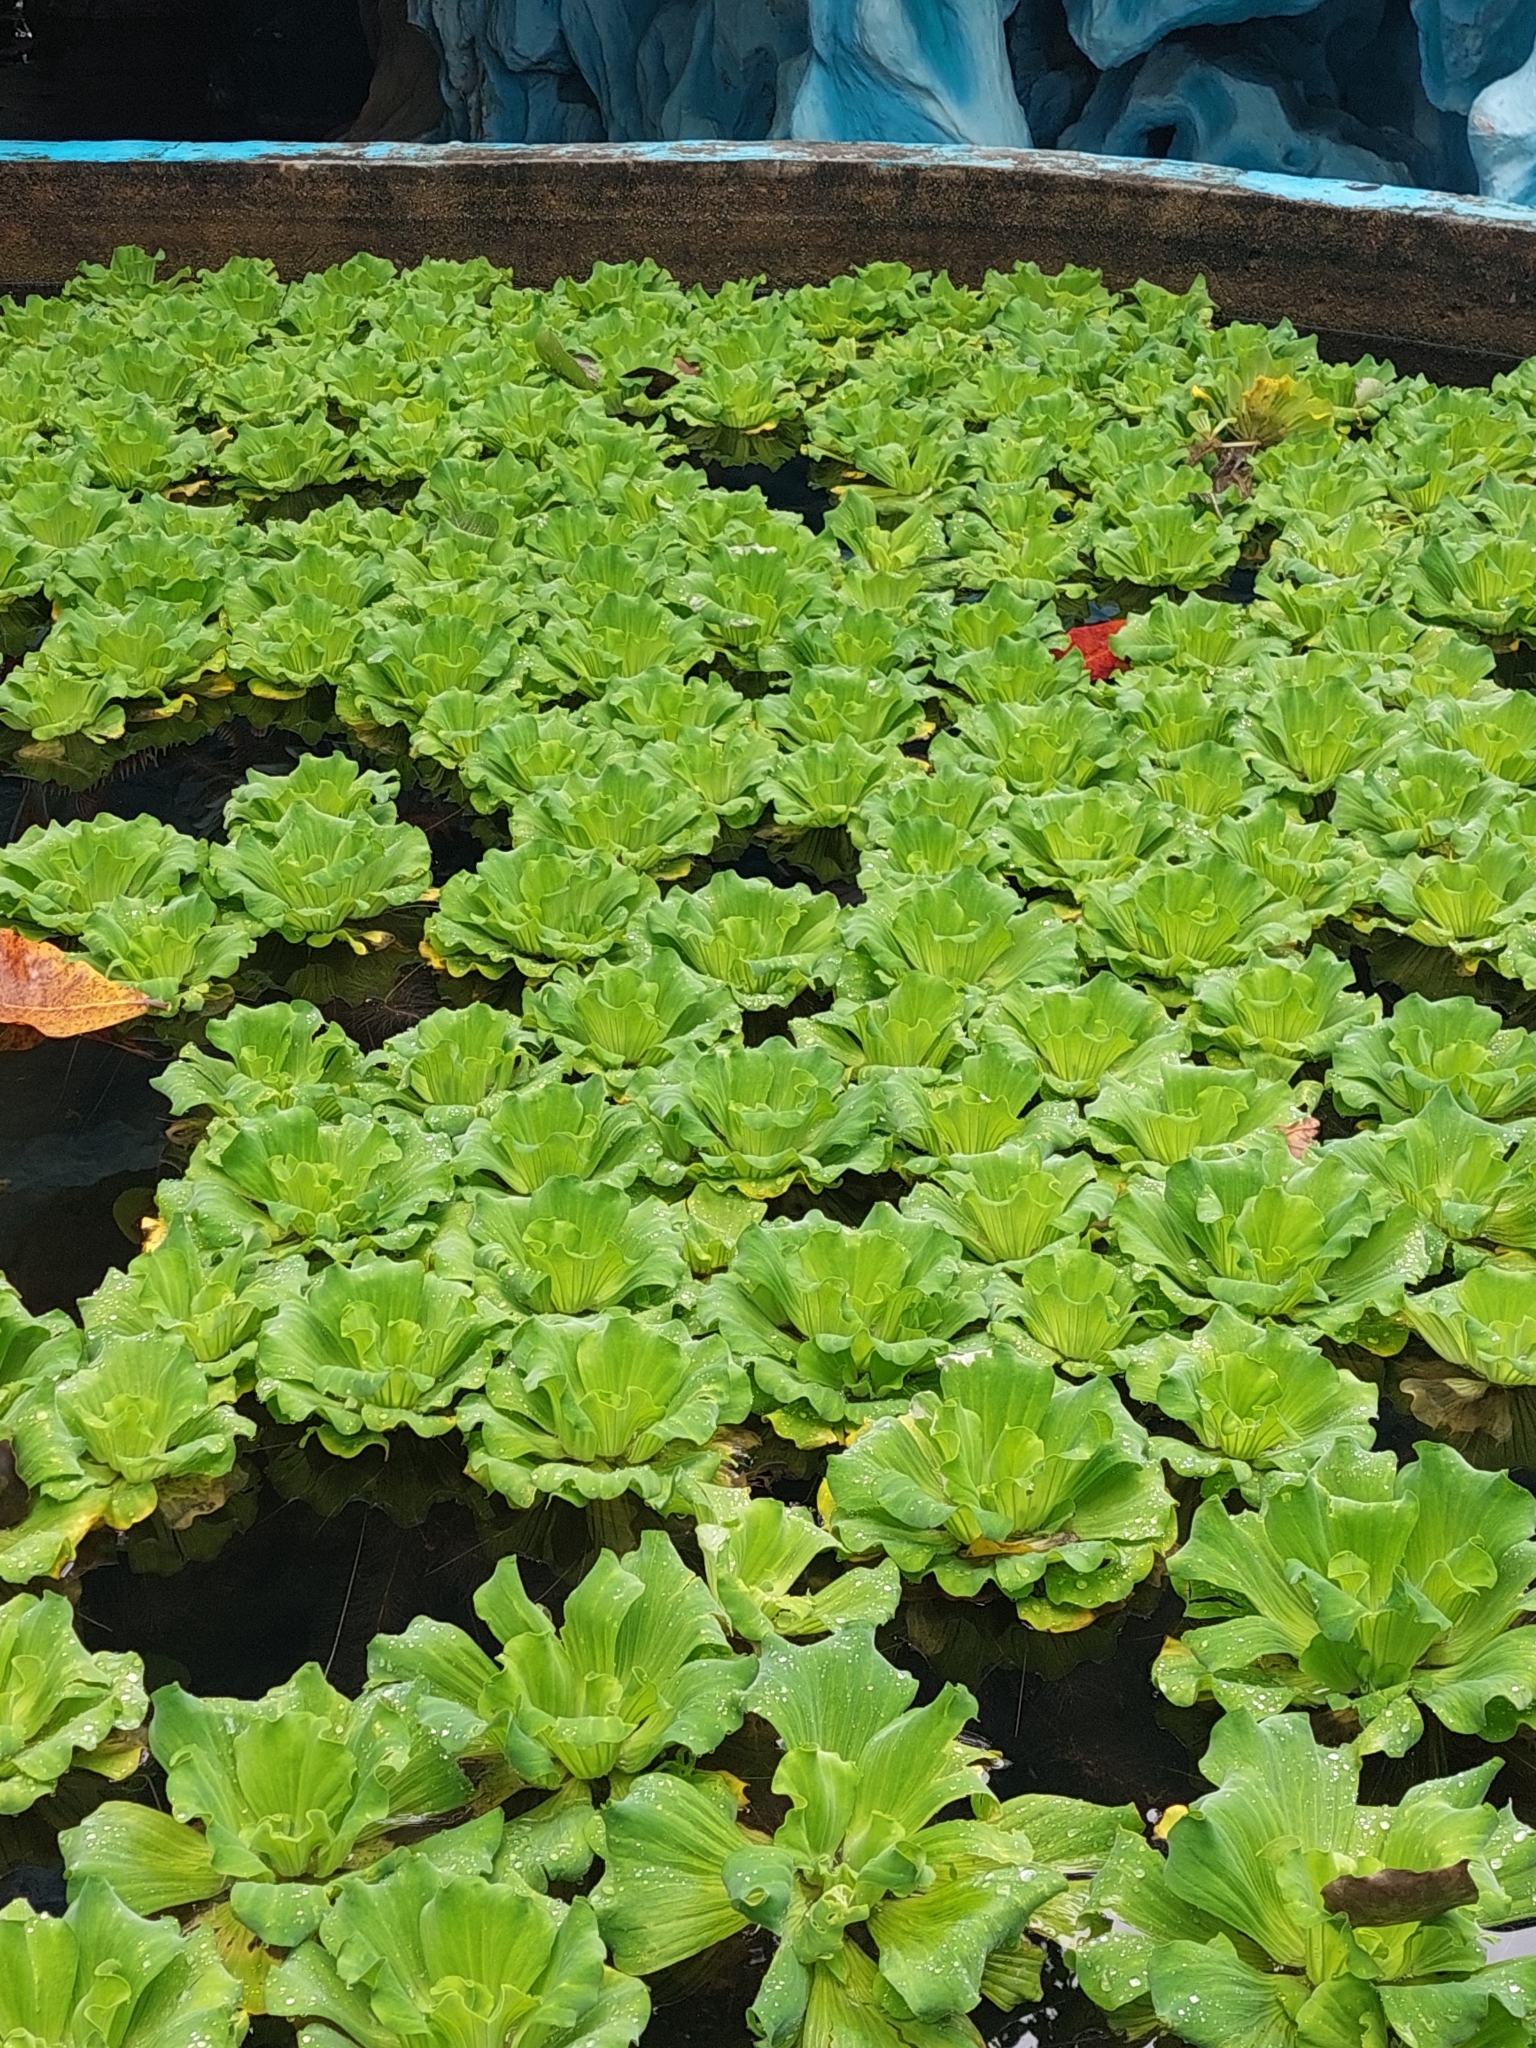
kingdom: Plantae
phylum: Tracheophyta
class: Liliopsida
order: Alismatales
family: Araceae
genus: Pistia
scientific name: Pistia stratiotes
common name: Water lettuce
